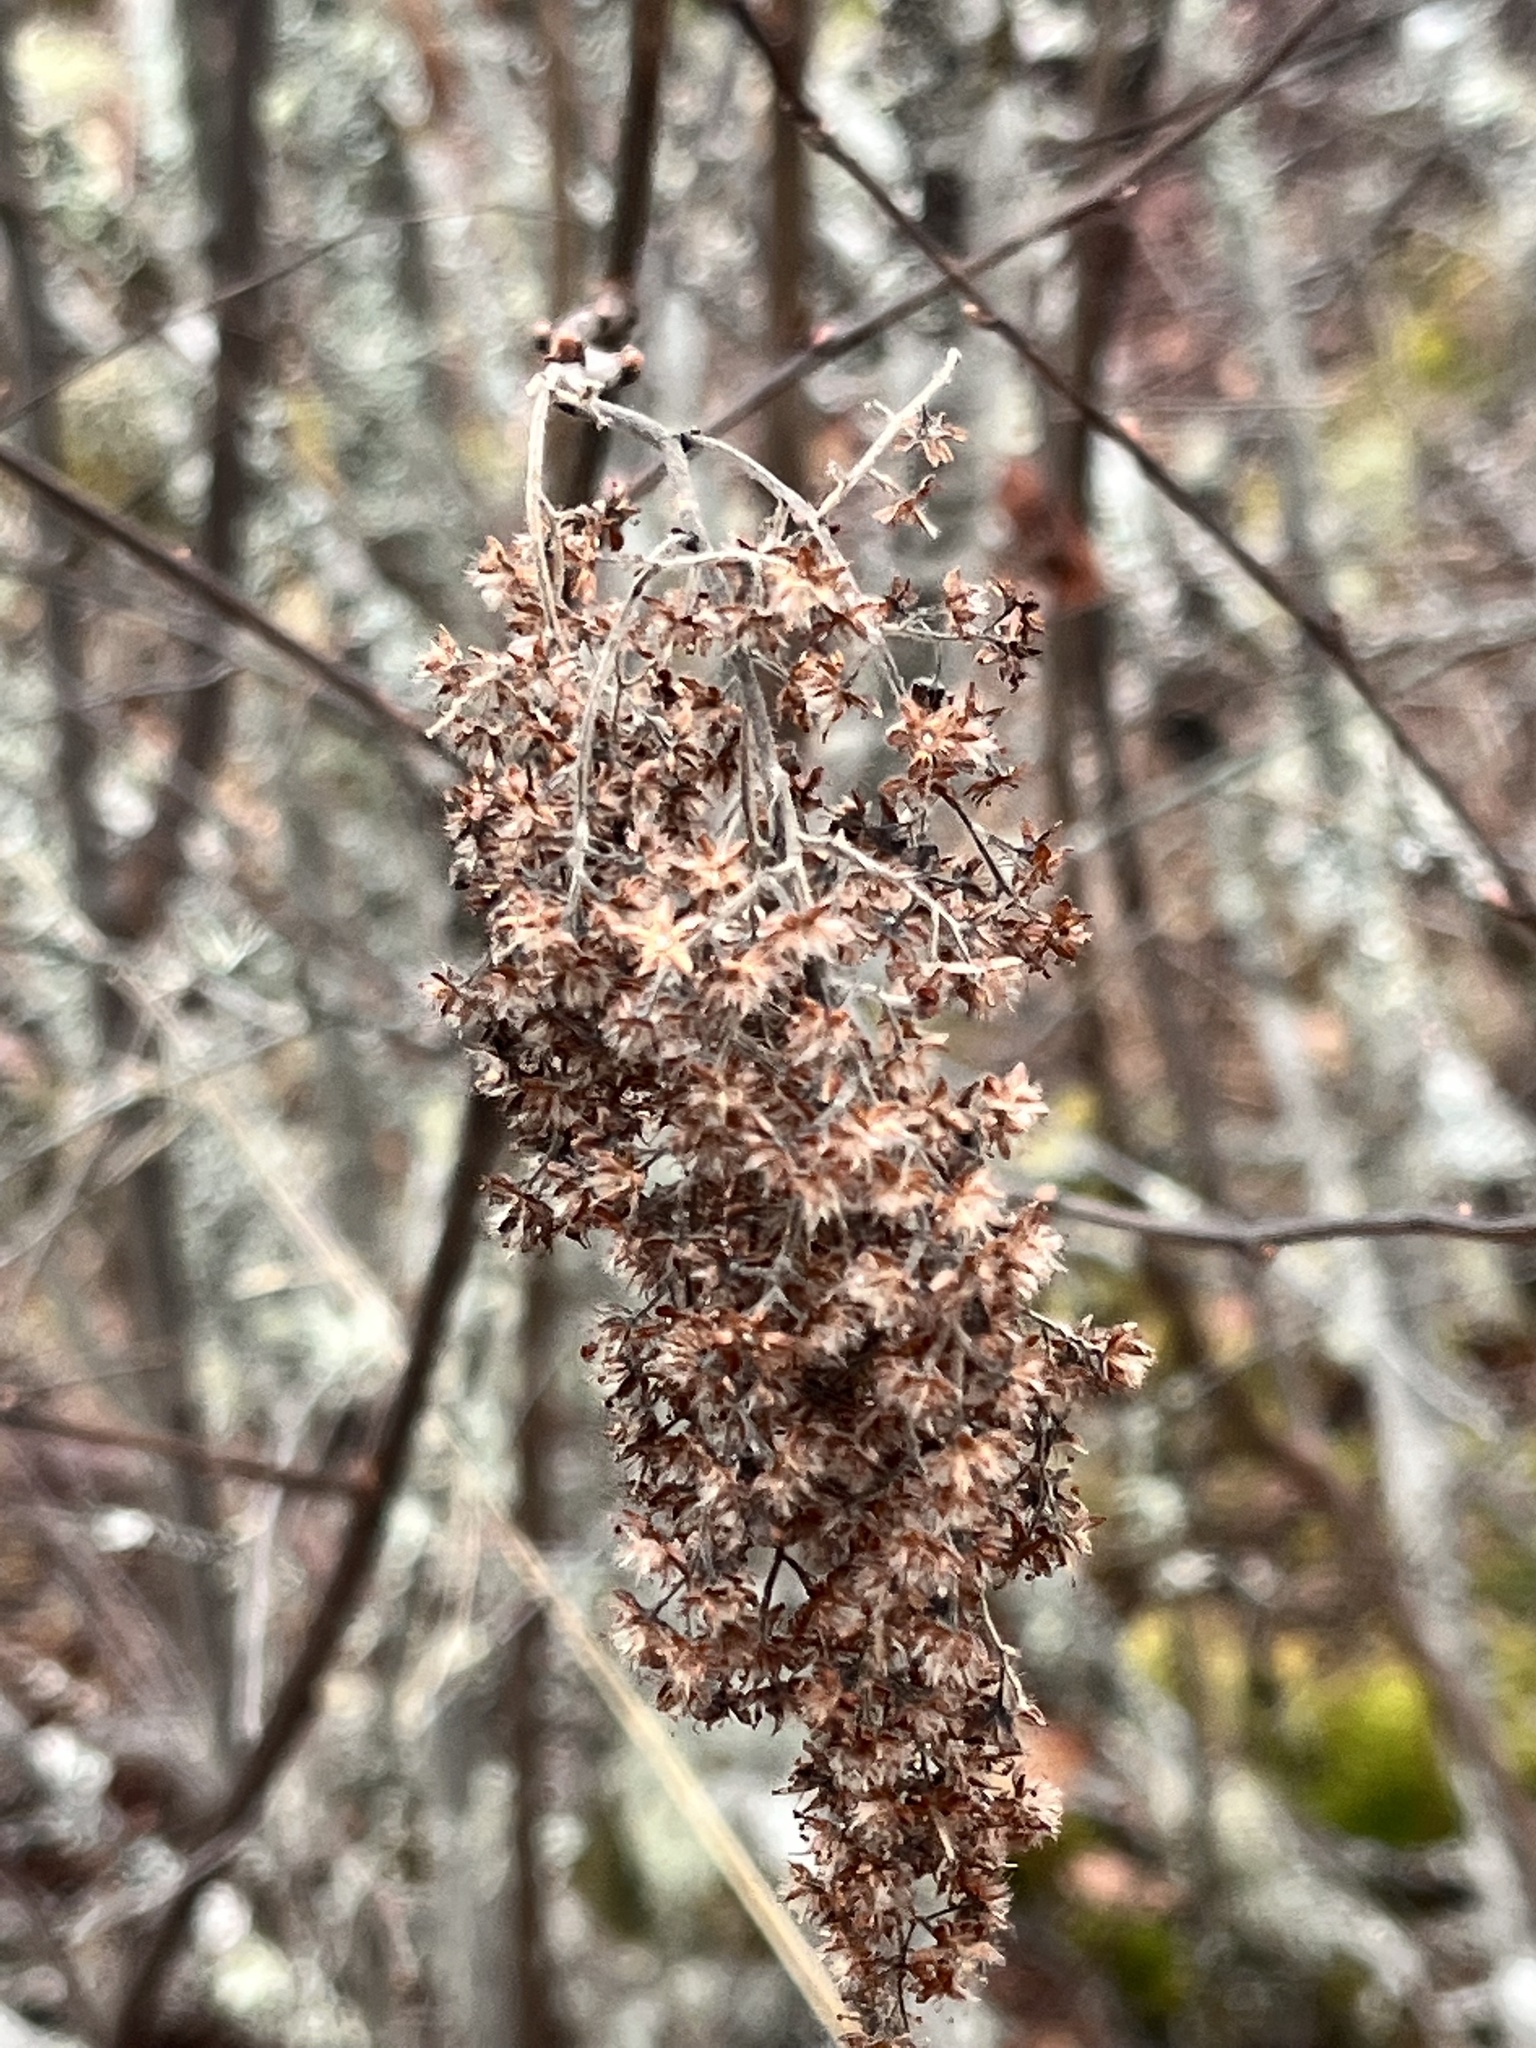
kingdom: Plantae
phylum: Tracheophyta
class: Magnoliopsida
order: Rosales
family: Rosaceae
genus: Holodiscus
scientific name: Holodiscus discolor
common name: Oceanspray
